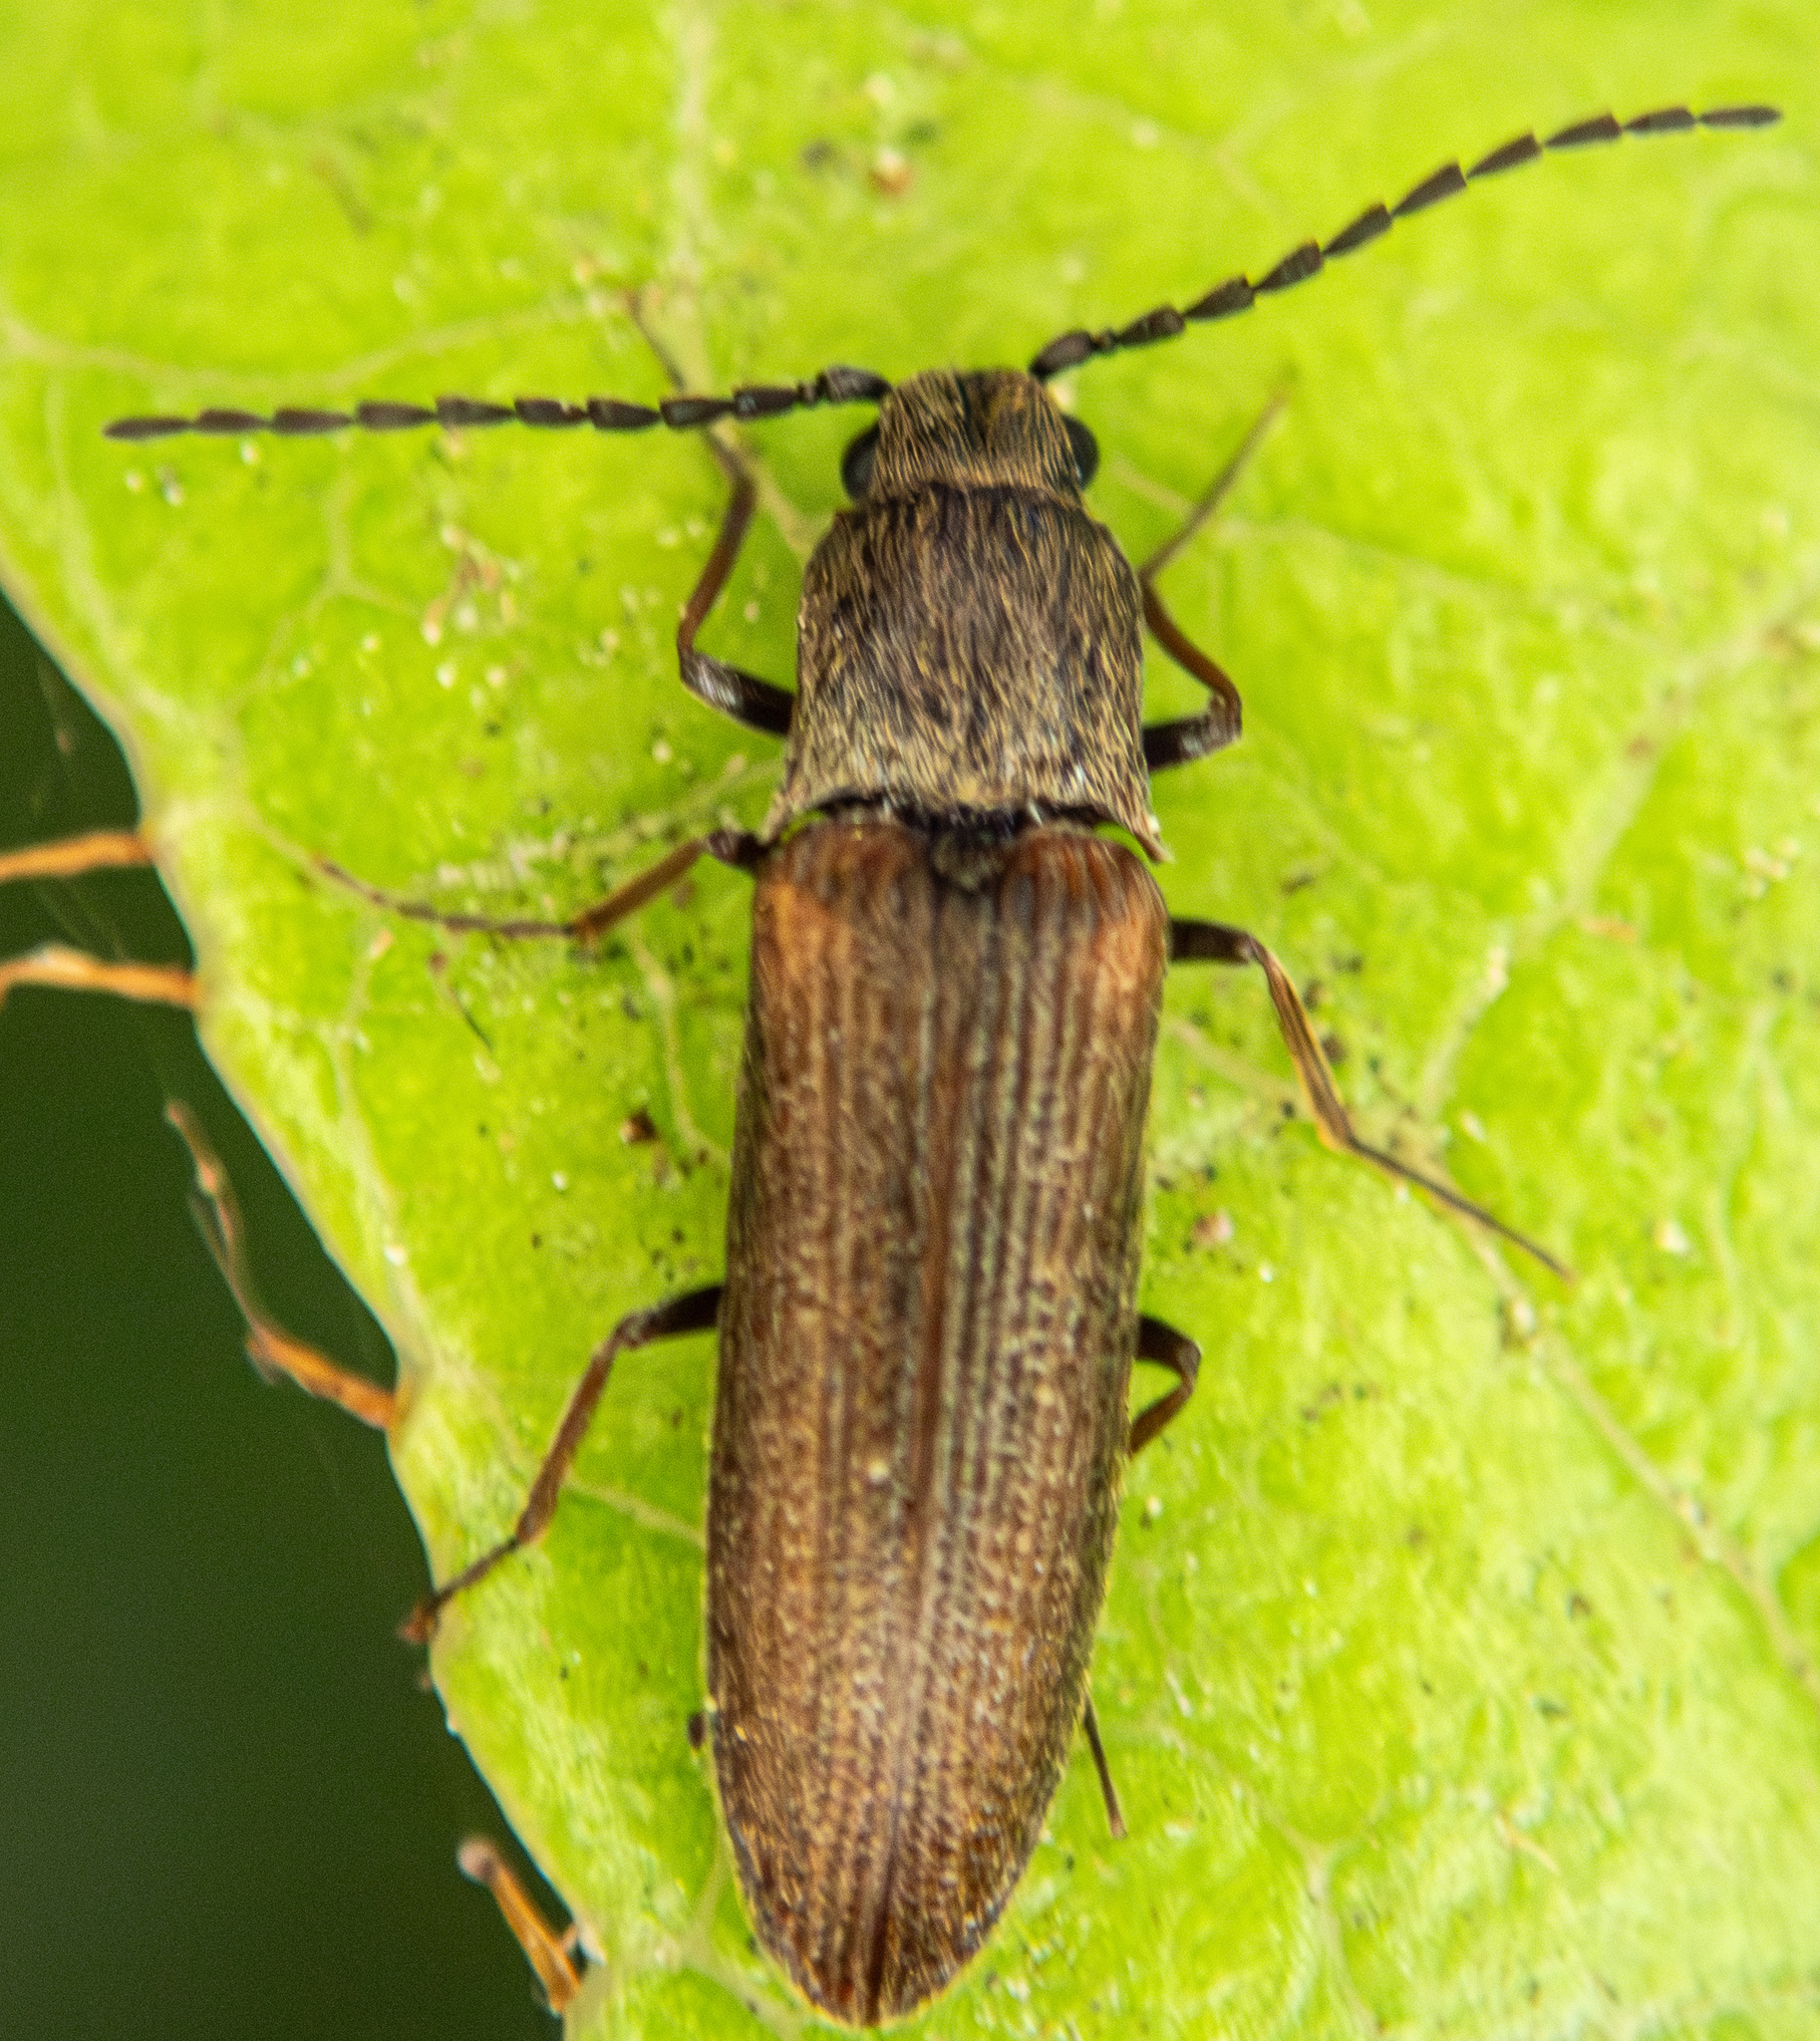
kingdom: Animalia
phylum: Arthropoda
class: Insecta
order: Coleoptera
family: Elateridae
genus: Campylomorphus
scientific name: Campylomorphus
